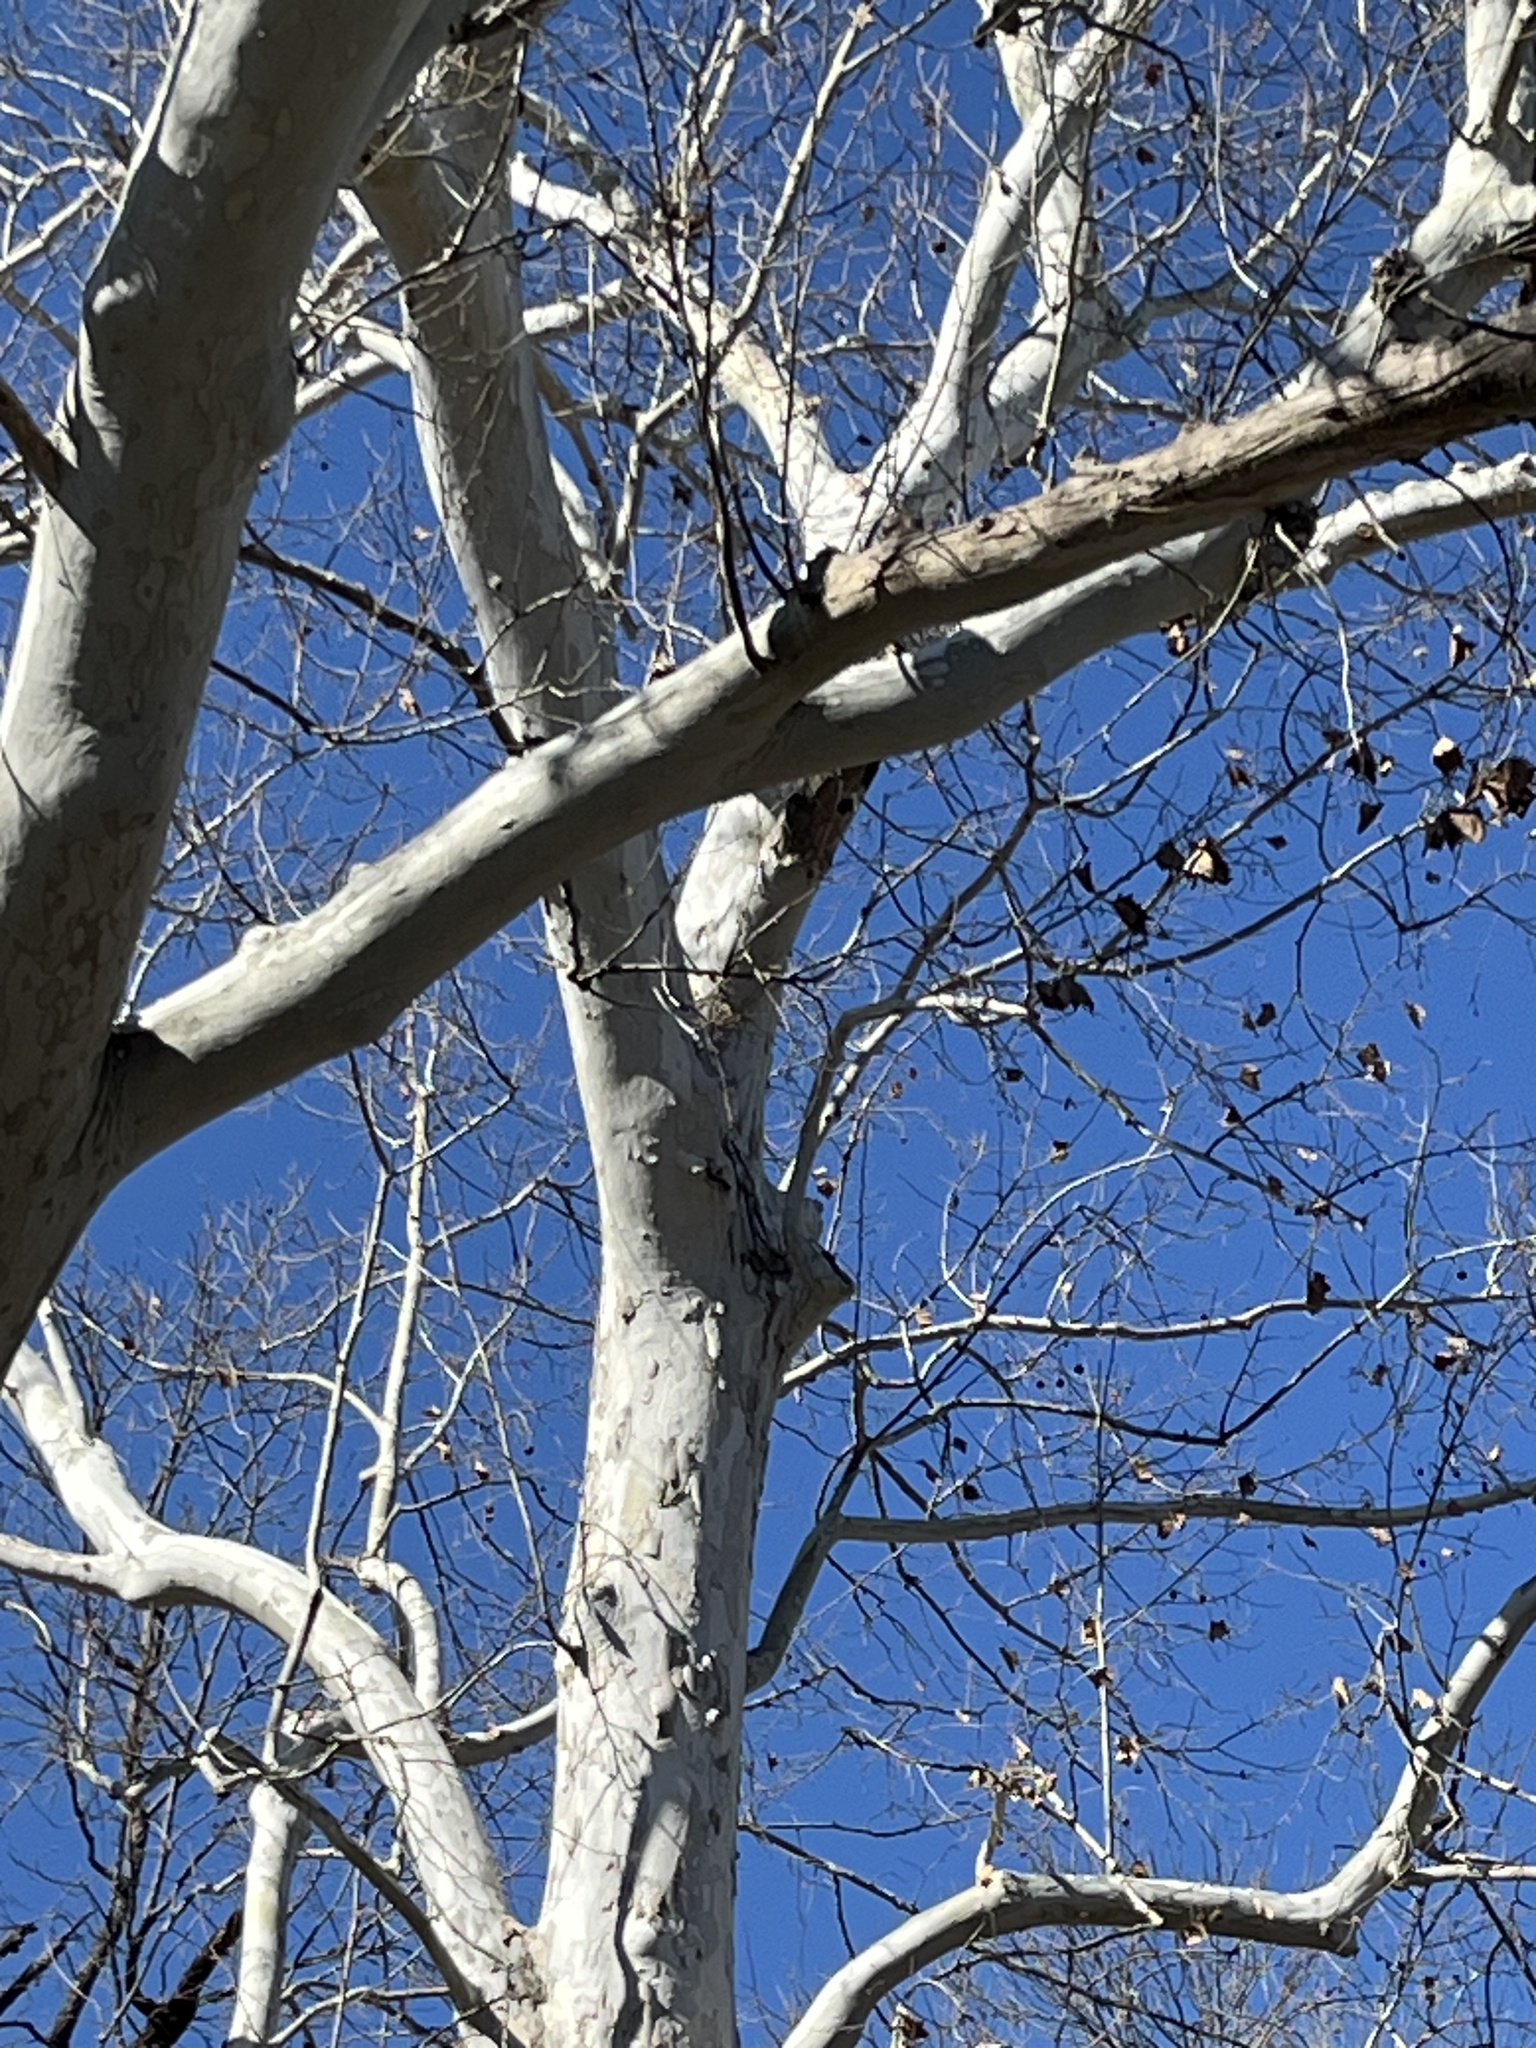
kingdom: Plantae
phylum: Tracheophyta
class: Magnoliopsida
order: Proteales
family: Platanaceae
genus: Platanus
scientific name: Platanus occidentalis
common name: American sycamore
